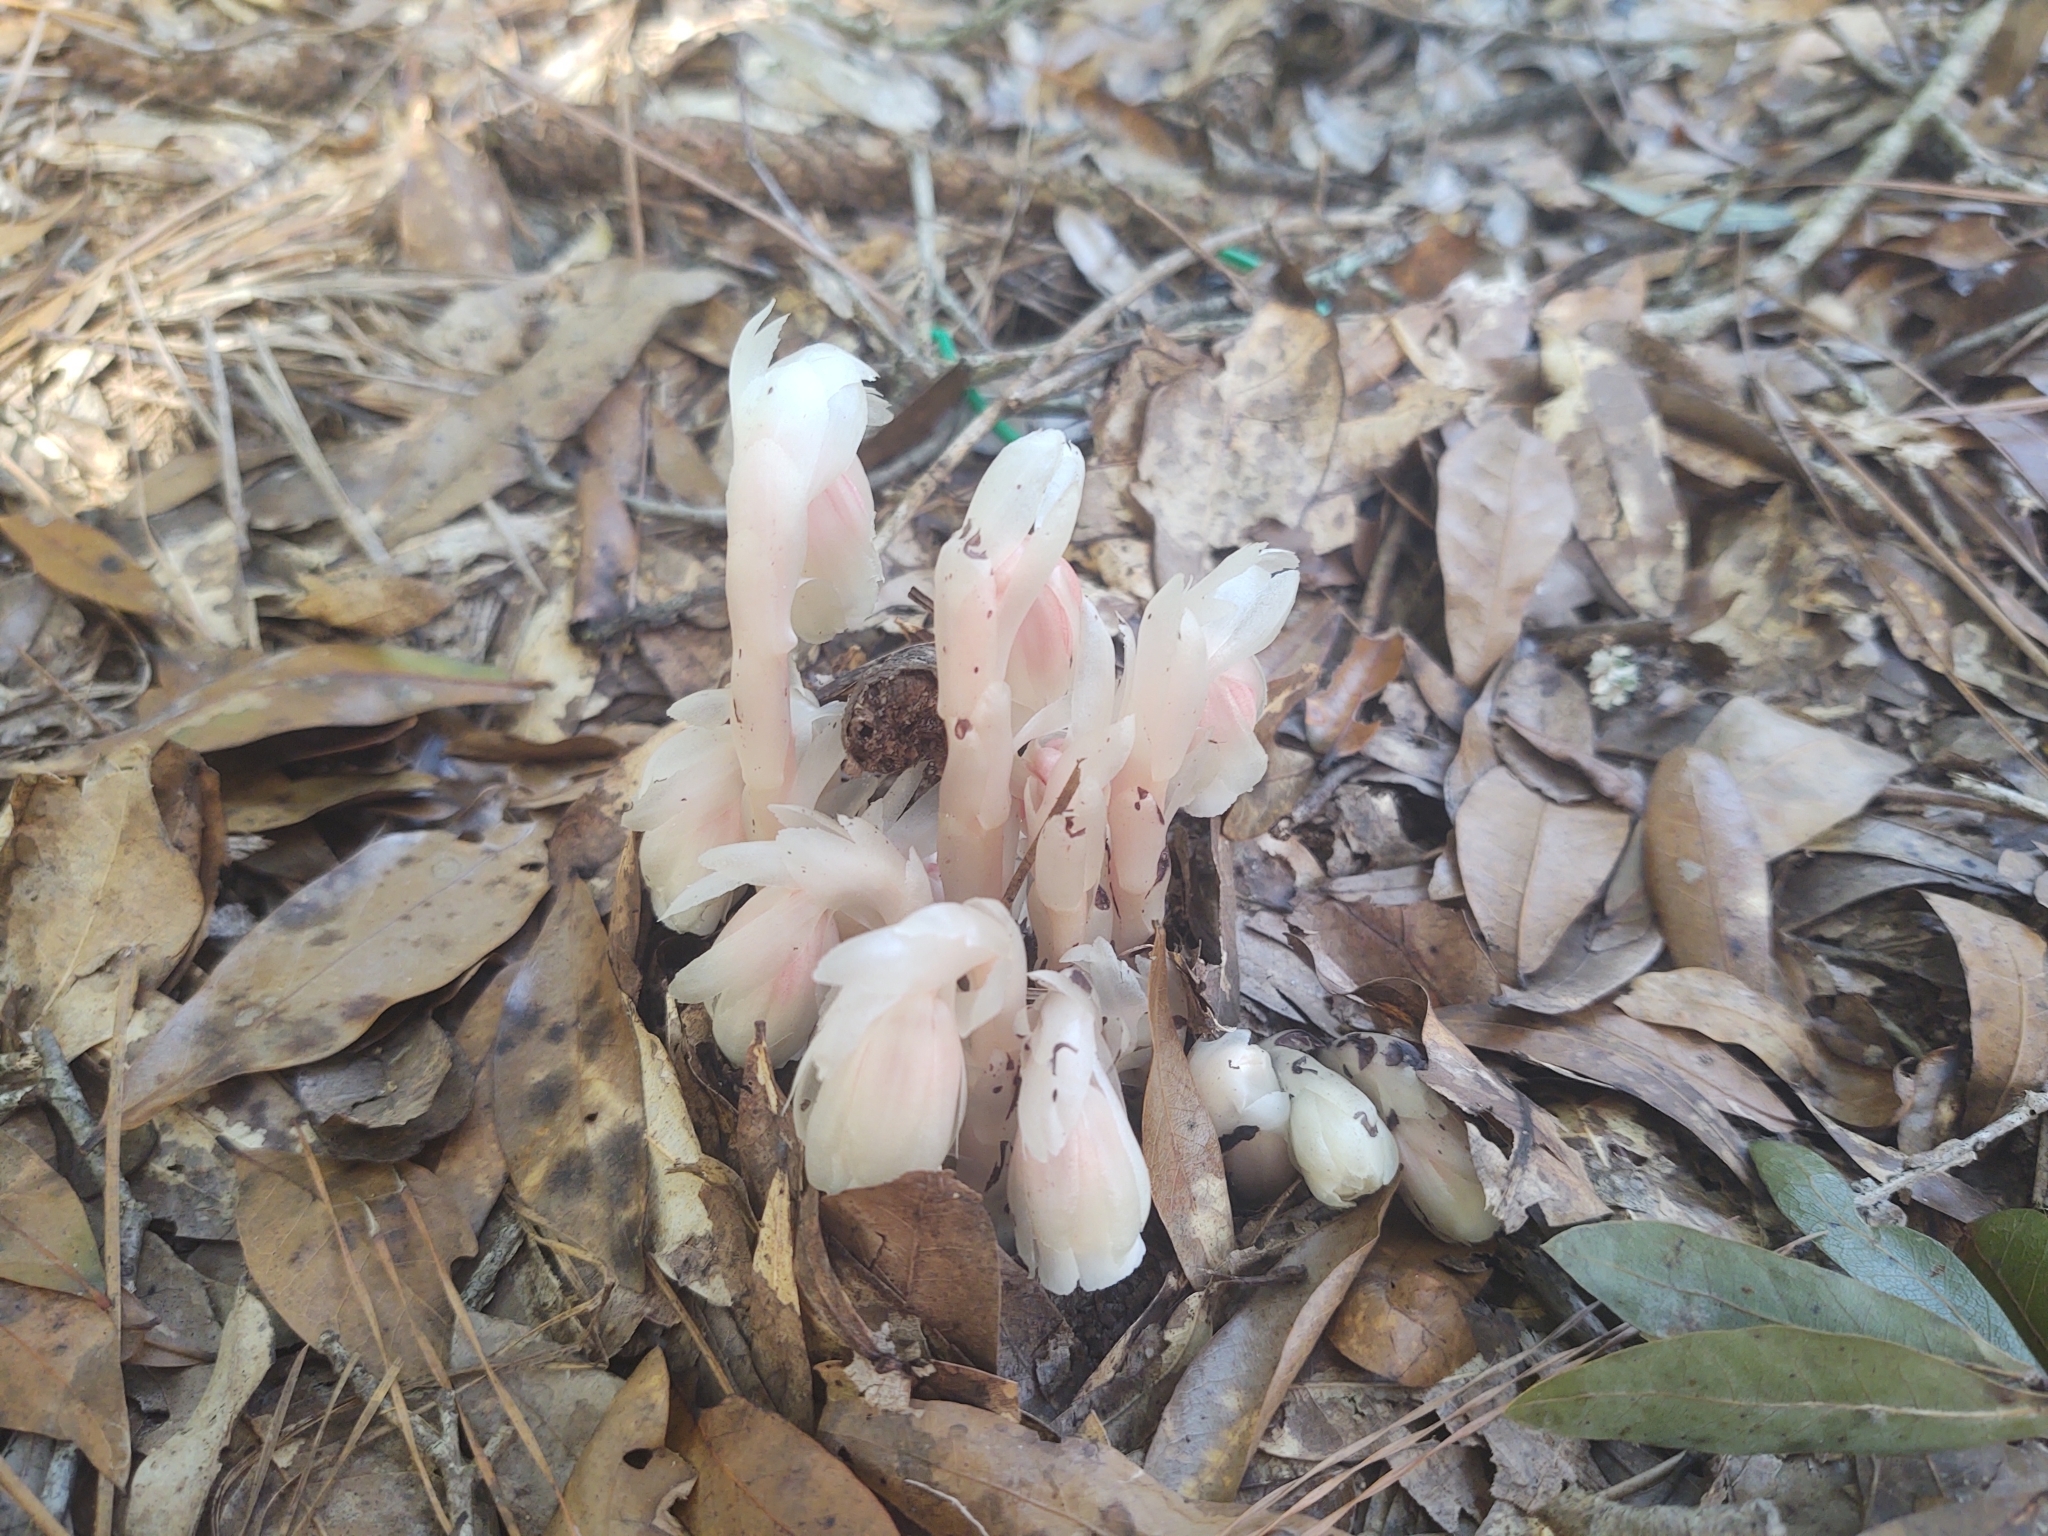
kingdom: Plantae
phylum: Tracheophyta
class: Magnoliopsida
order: Ericales
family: Ericaceae
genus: Monotropa
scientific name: Monotropa uniflora
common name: Convulsion root
